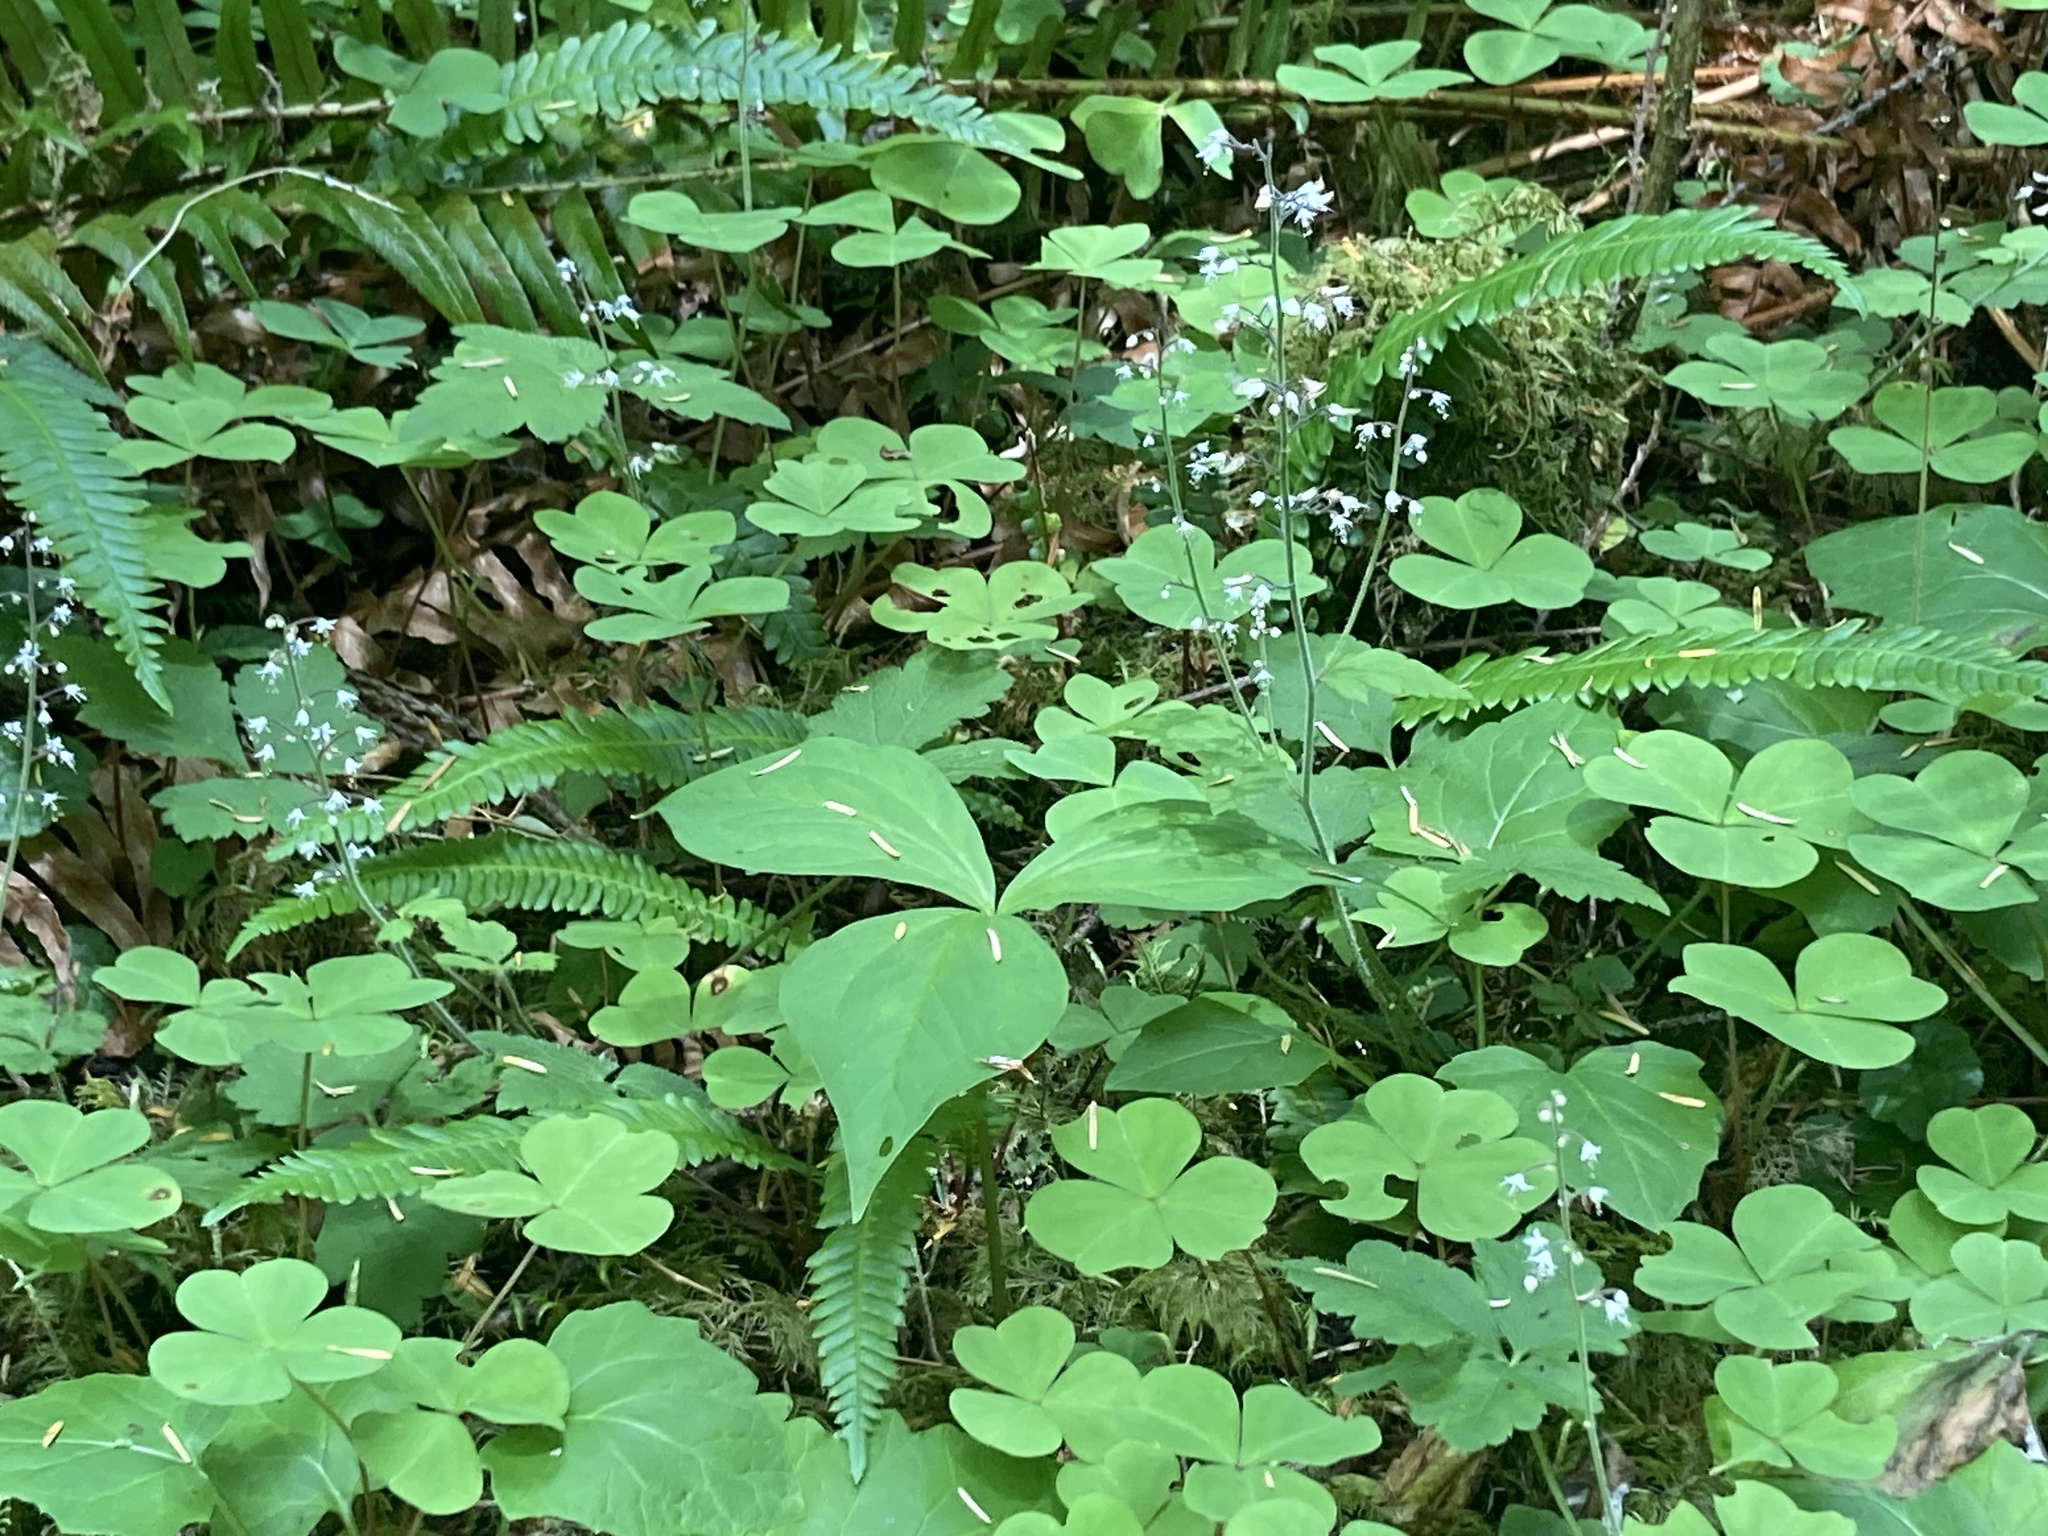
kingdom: Plantae
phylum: Tracheophyta
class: Magnoliopsida
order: Saxifragales
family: Saxifragaceae
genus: Tiarella
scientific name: Tiarella trifoliata
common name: Sugar-scoop
